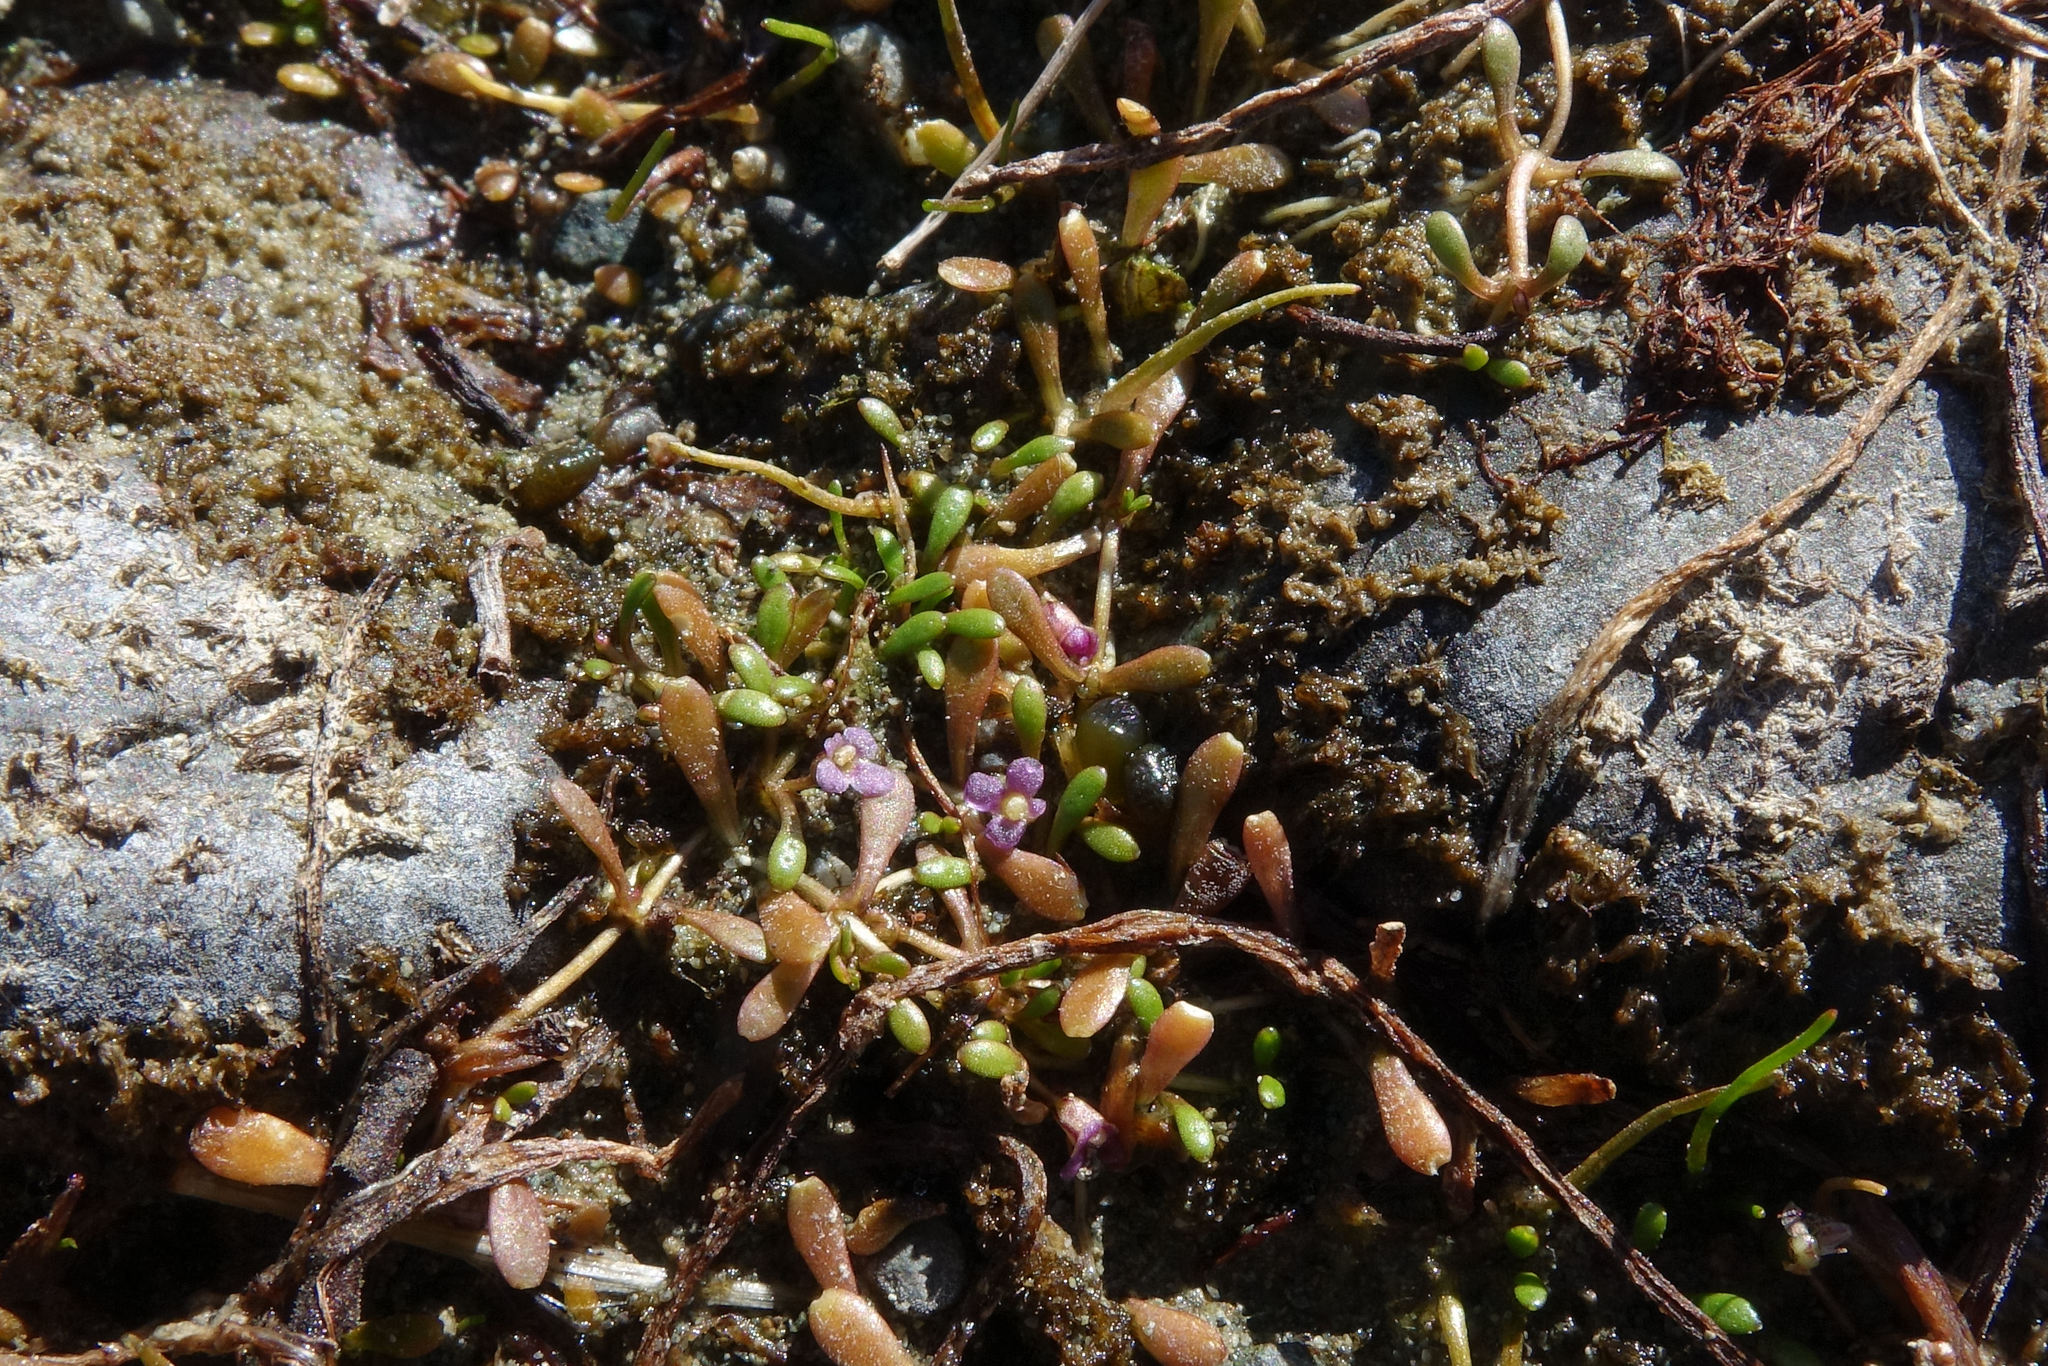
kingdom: Plantae
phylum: Tracheophyta
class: Magnoliopsida
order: Lamiales
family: Phrymaceae
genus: Glossostigma
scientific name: Glossostigma elatinoides
